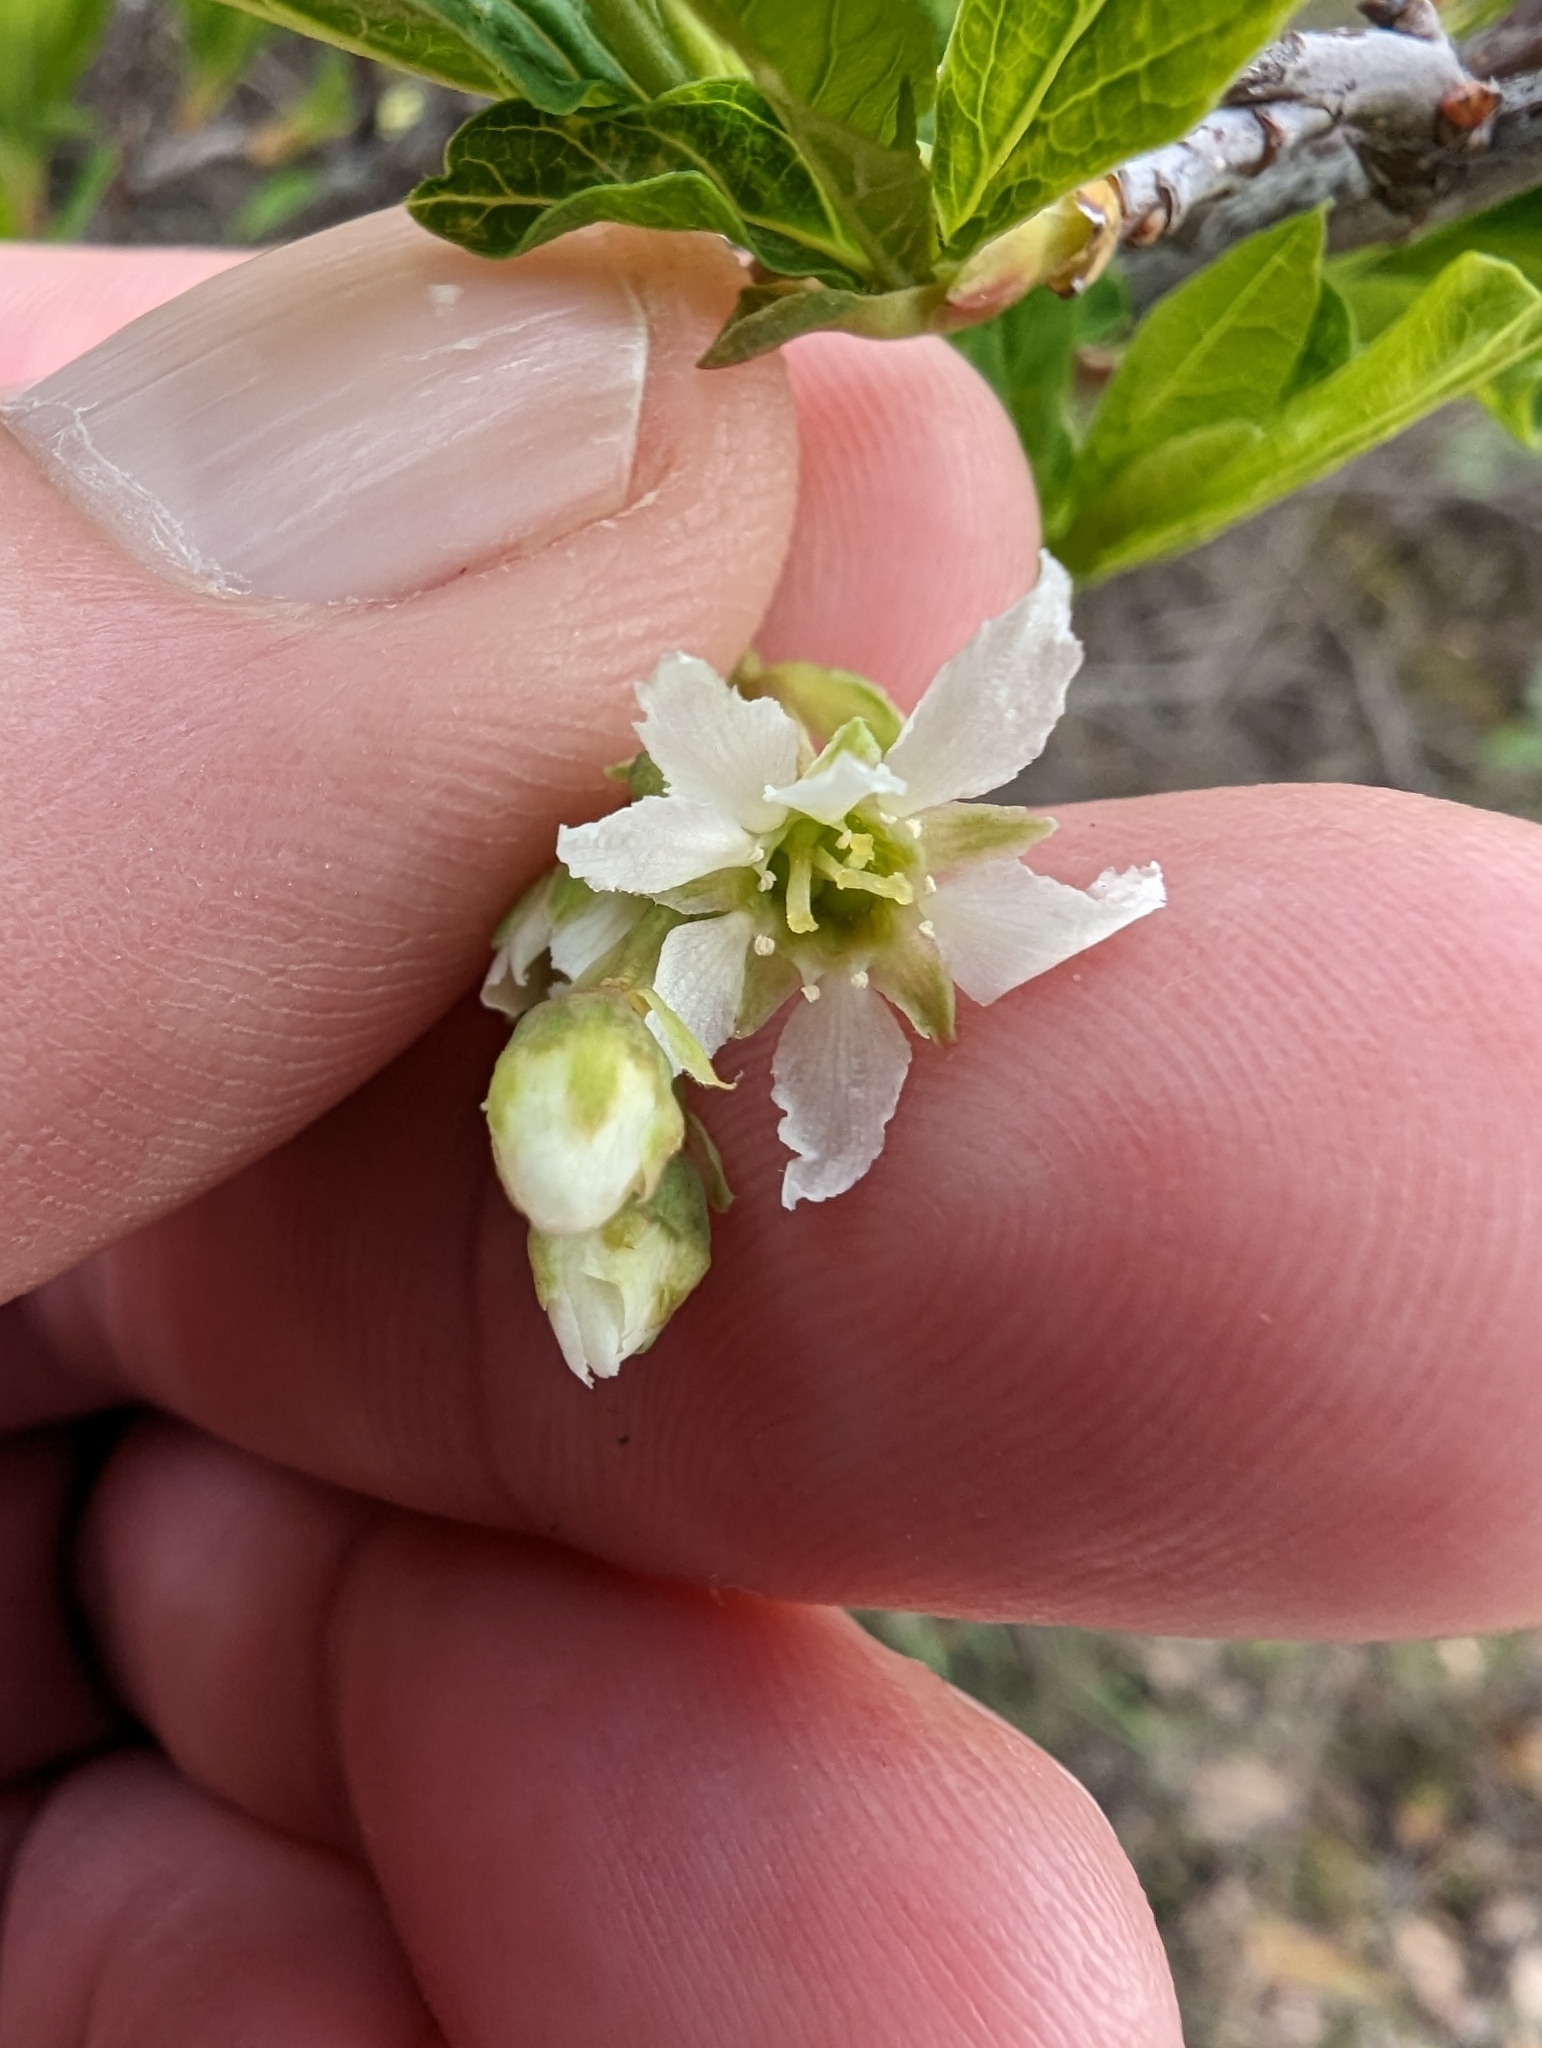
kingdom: Plantae
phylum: Tracheophyta
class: Magnoliopsida
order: Rosales
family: Rosaceae
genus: Oemleria
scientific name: Oemleria cerasiformis
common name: Osoberry
